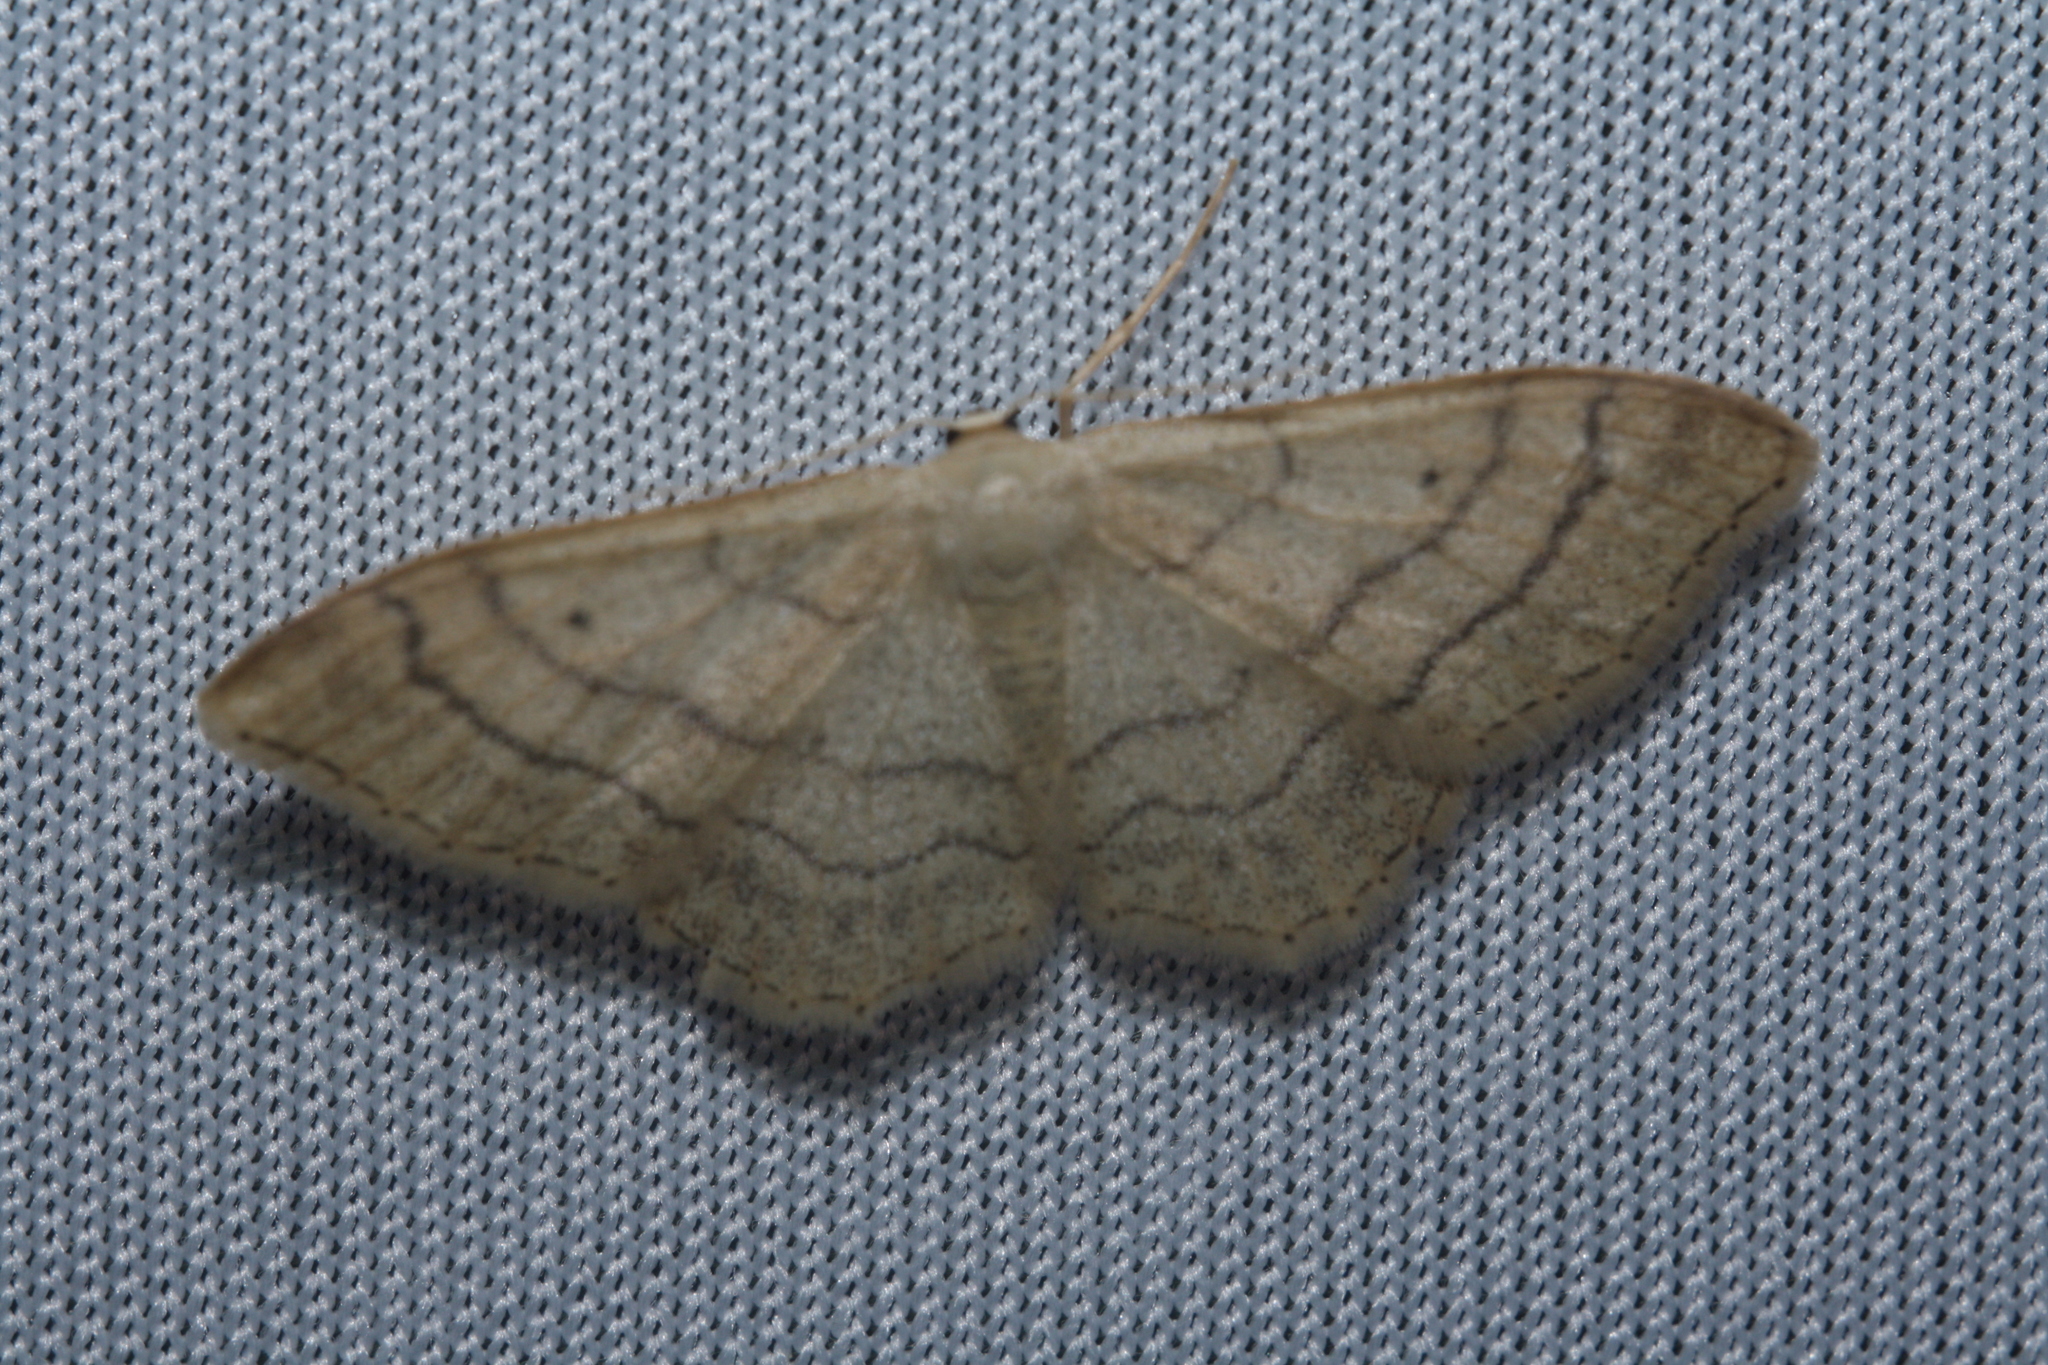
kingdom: Animalia
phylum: Arthropoda
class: Insecta
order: Lepidoptera
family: Geometridae
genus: Idaea
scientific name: Idaea aversata
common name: Riband wave
